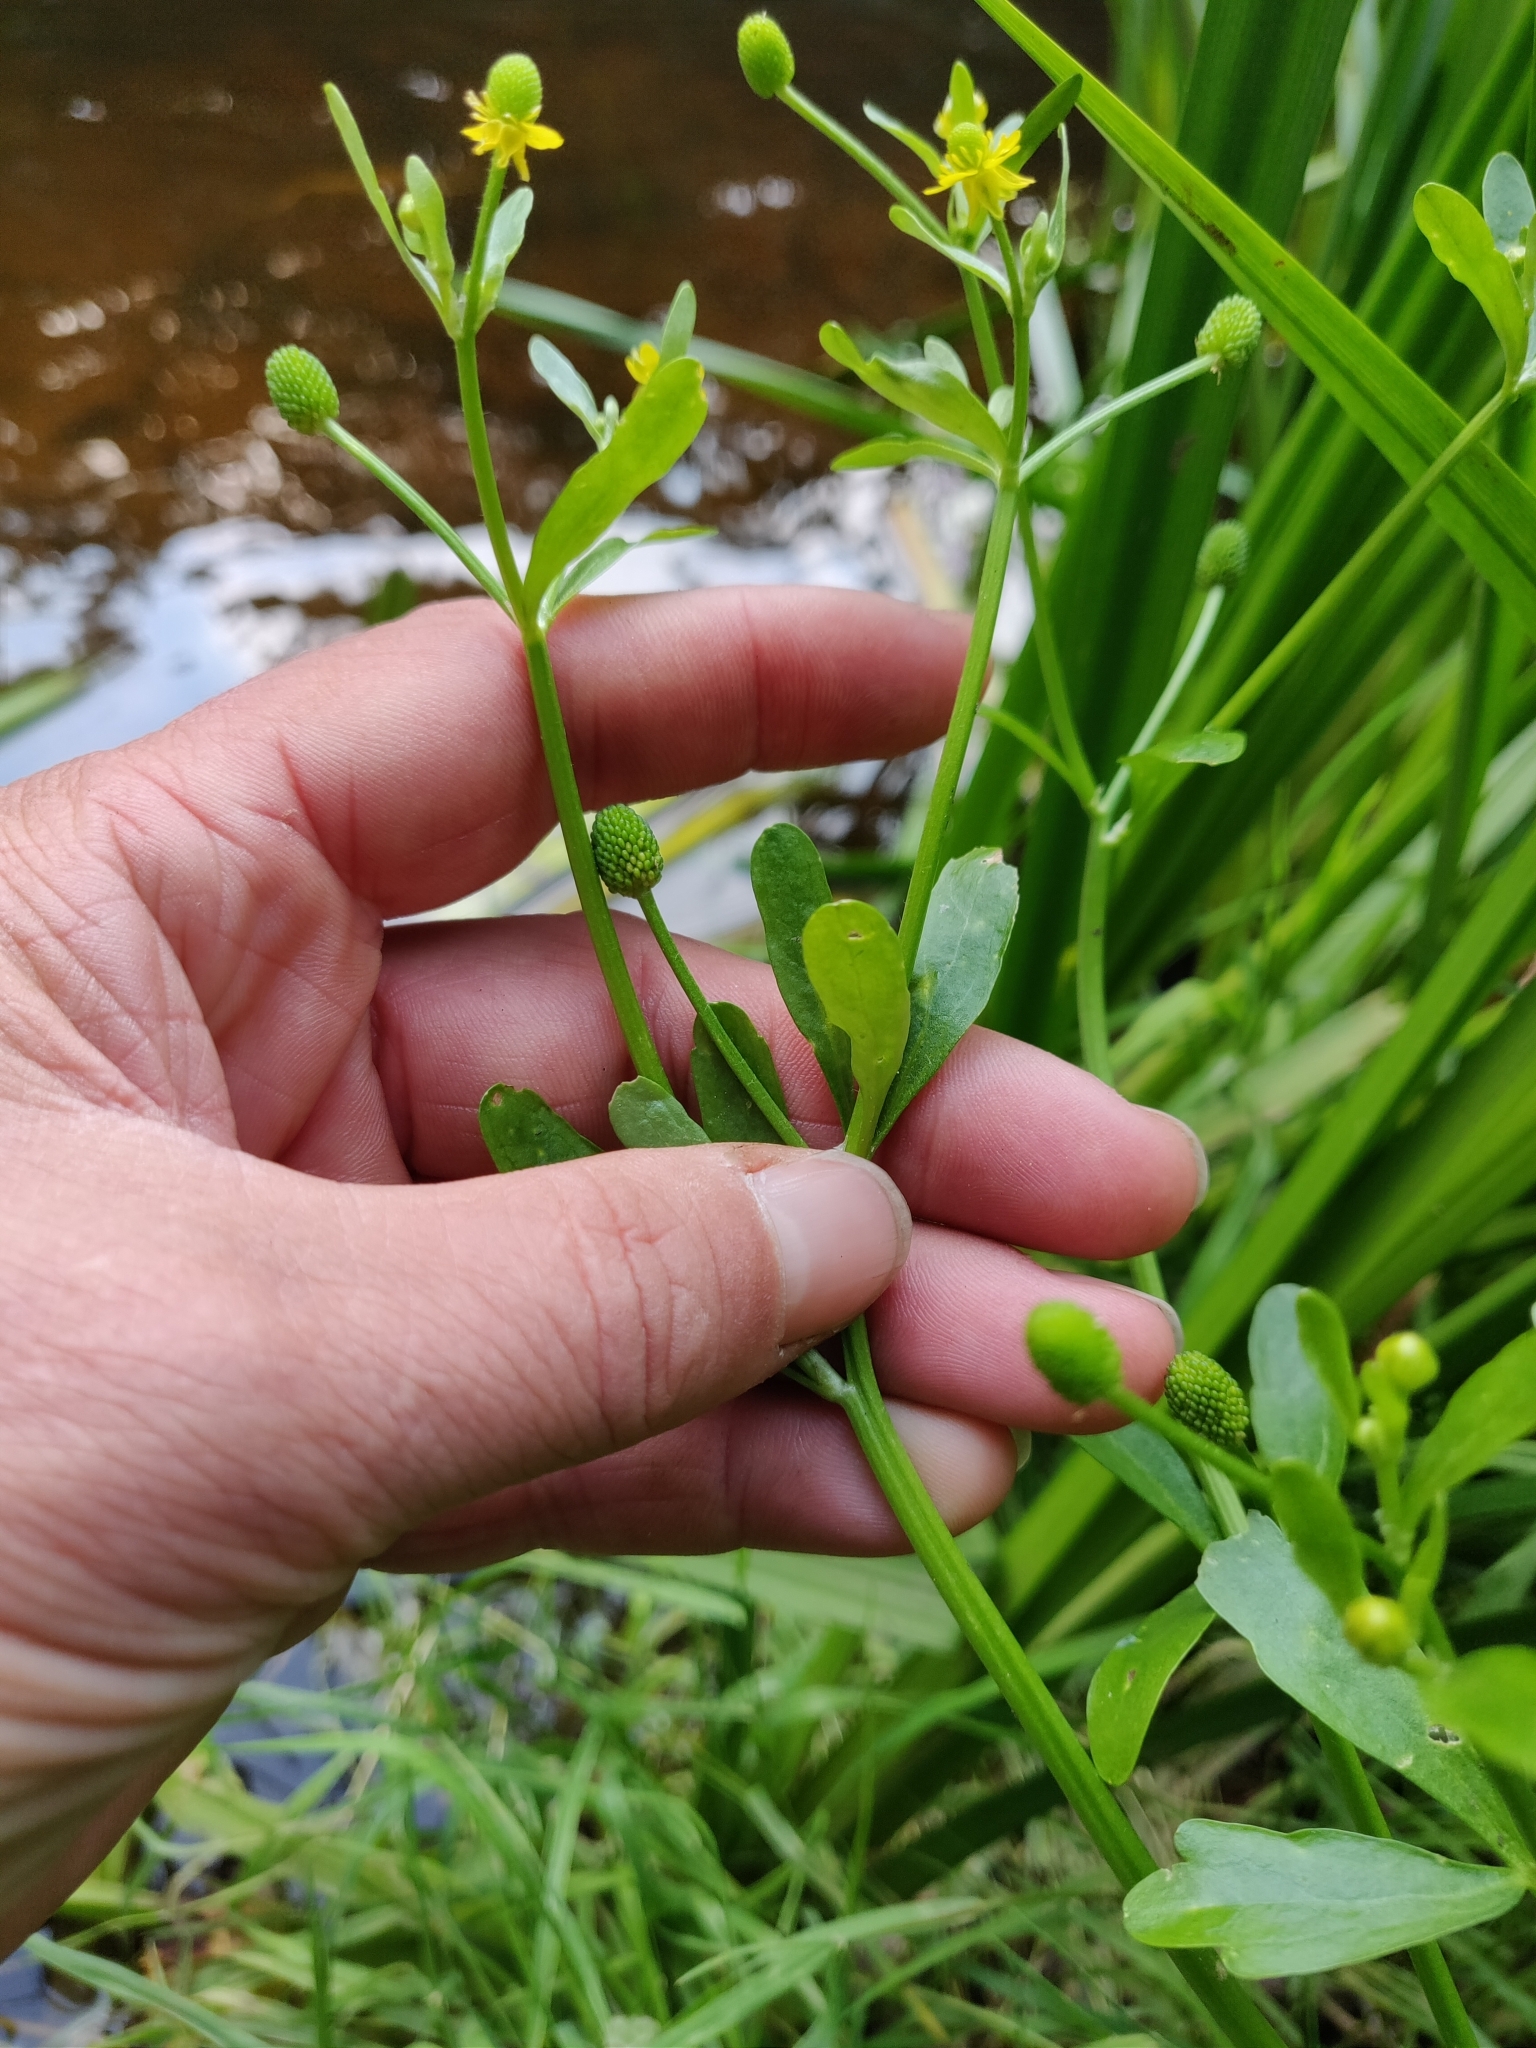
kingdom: Plantae
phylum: Tracheophyta
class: Magnoliopsida
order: Ranunculales
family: Ranunculaceae
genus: Ranunculus
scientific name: Ranunculus sceleratus
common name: Celery-leaved buttercup
